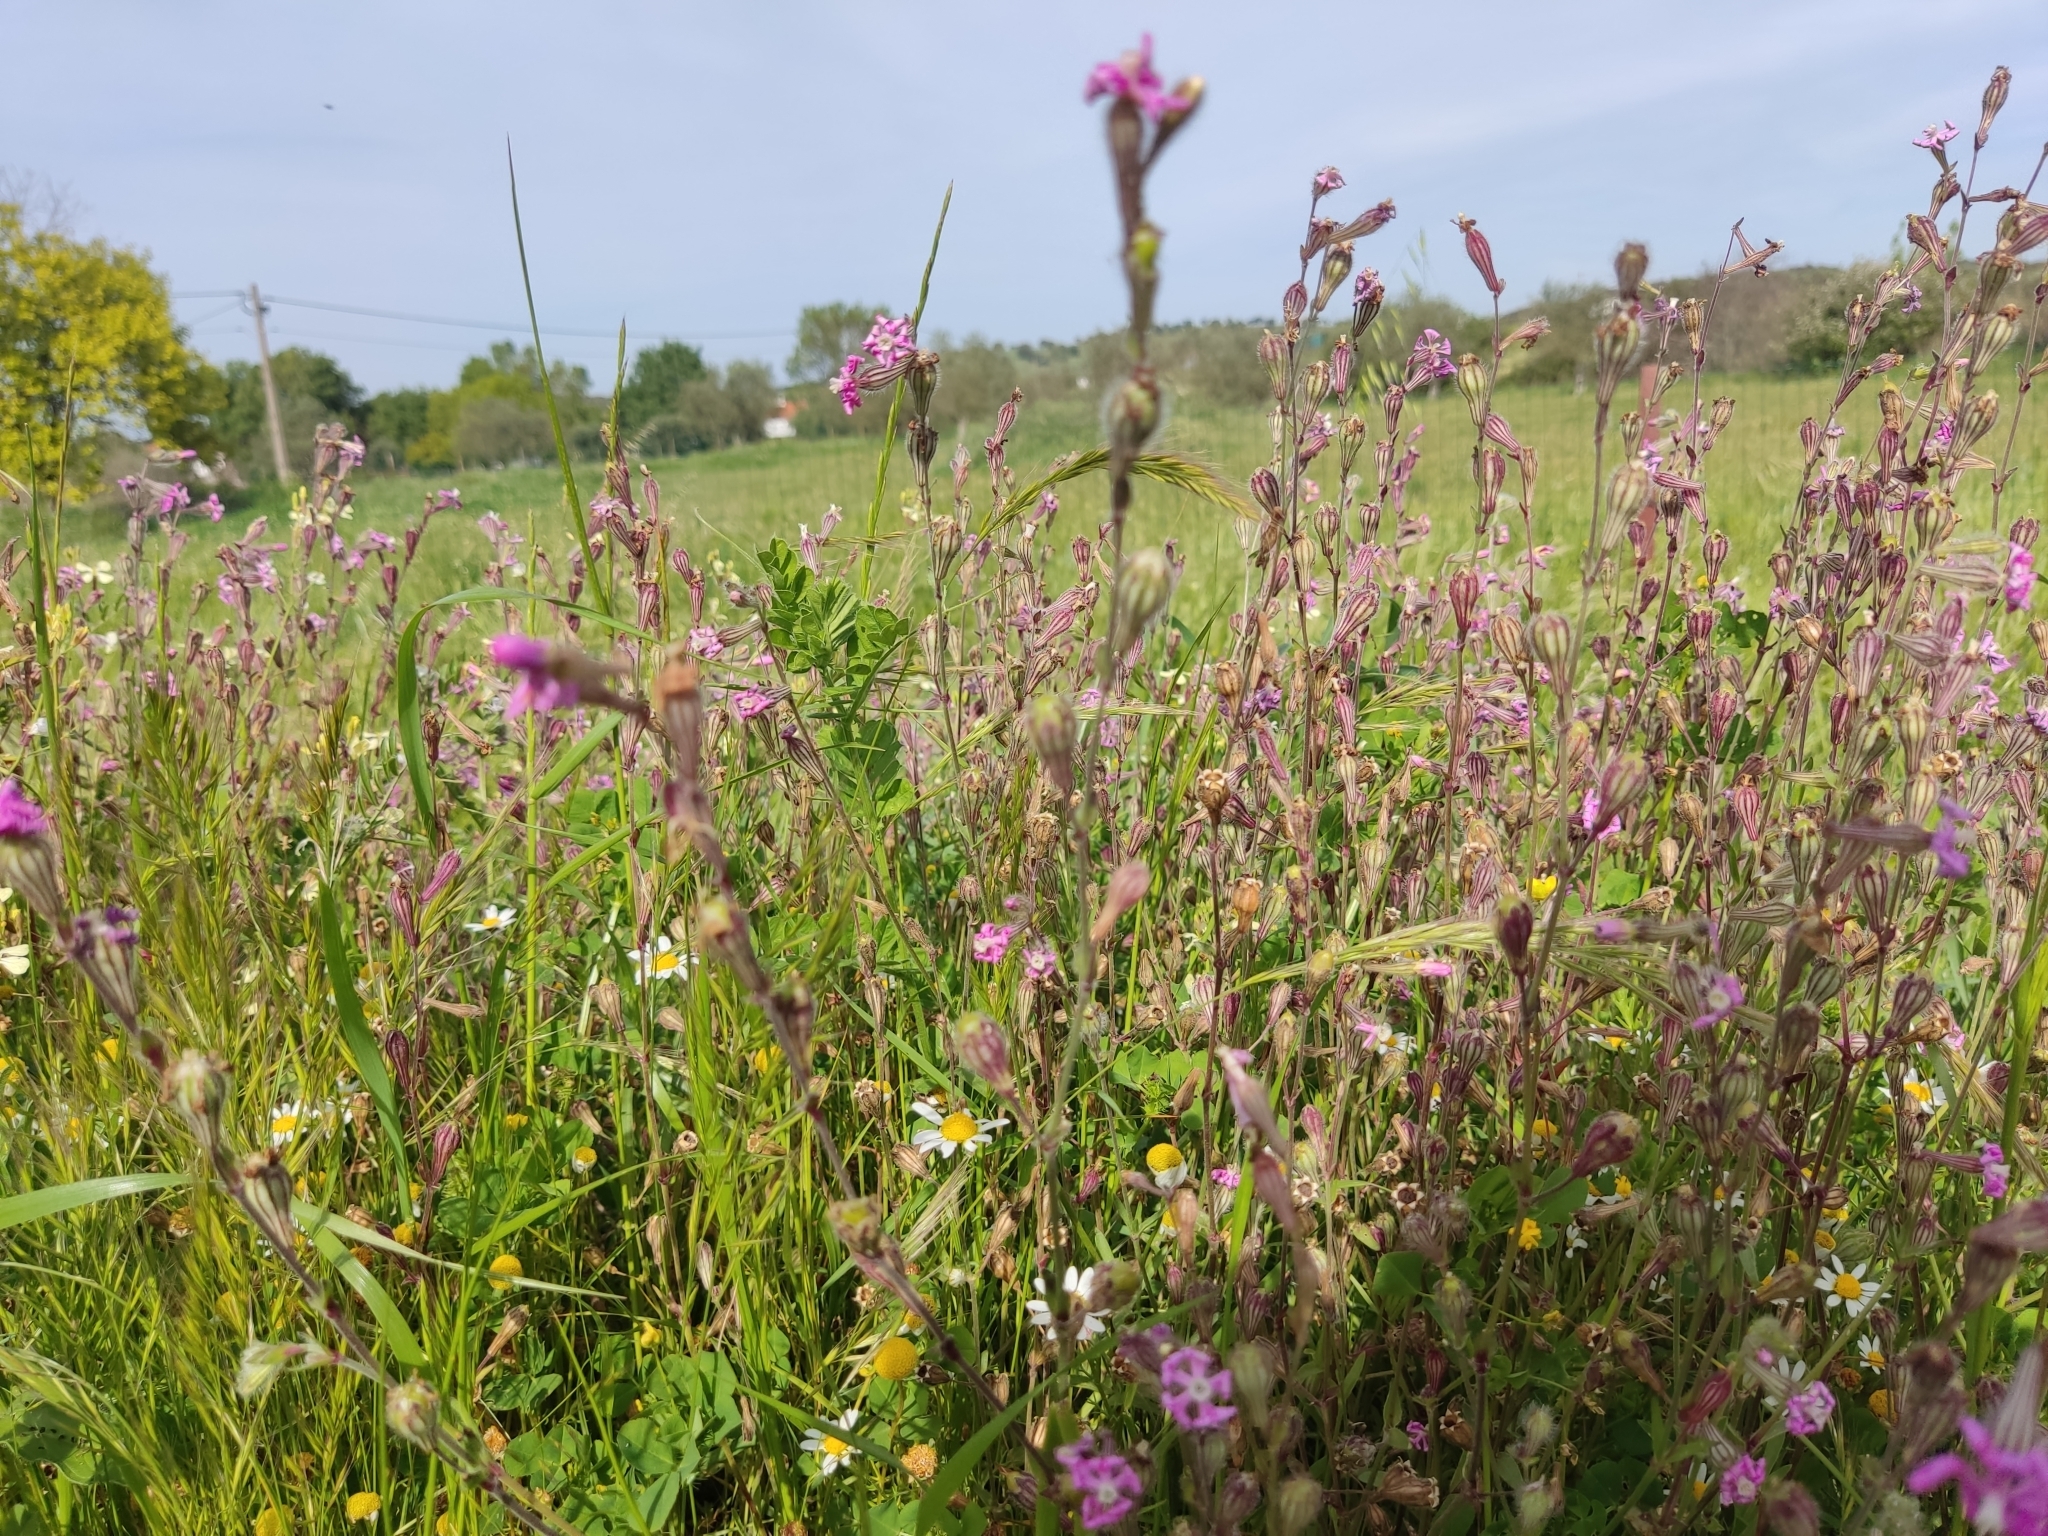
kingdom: Plantae
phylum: Tracheophyta
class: Magnoliopsida
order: Caryophyllales
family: Caryophyllaceae
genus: Silene
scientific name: Silene colorata
